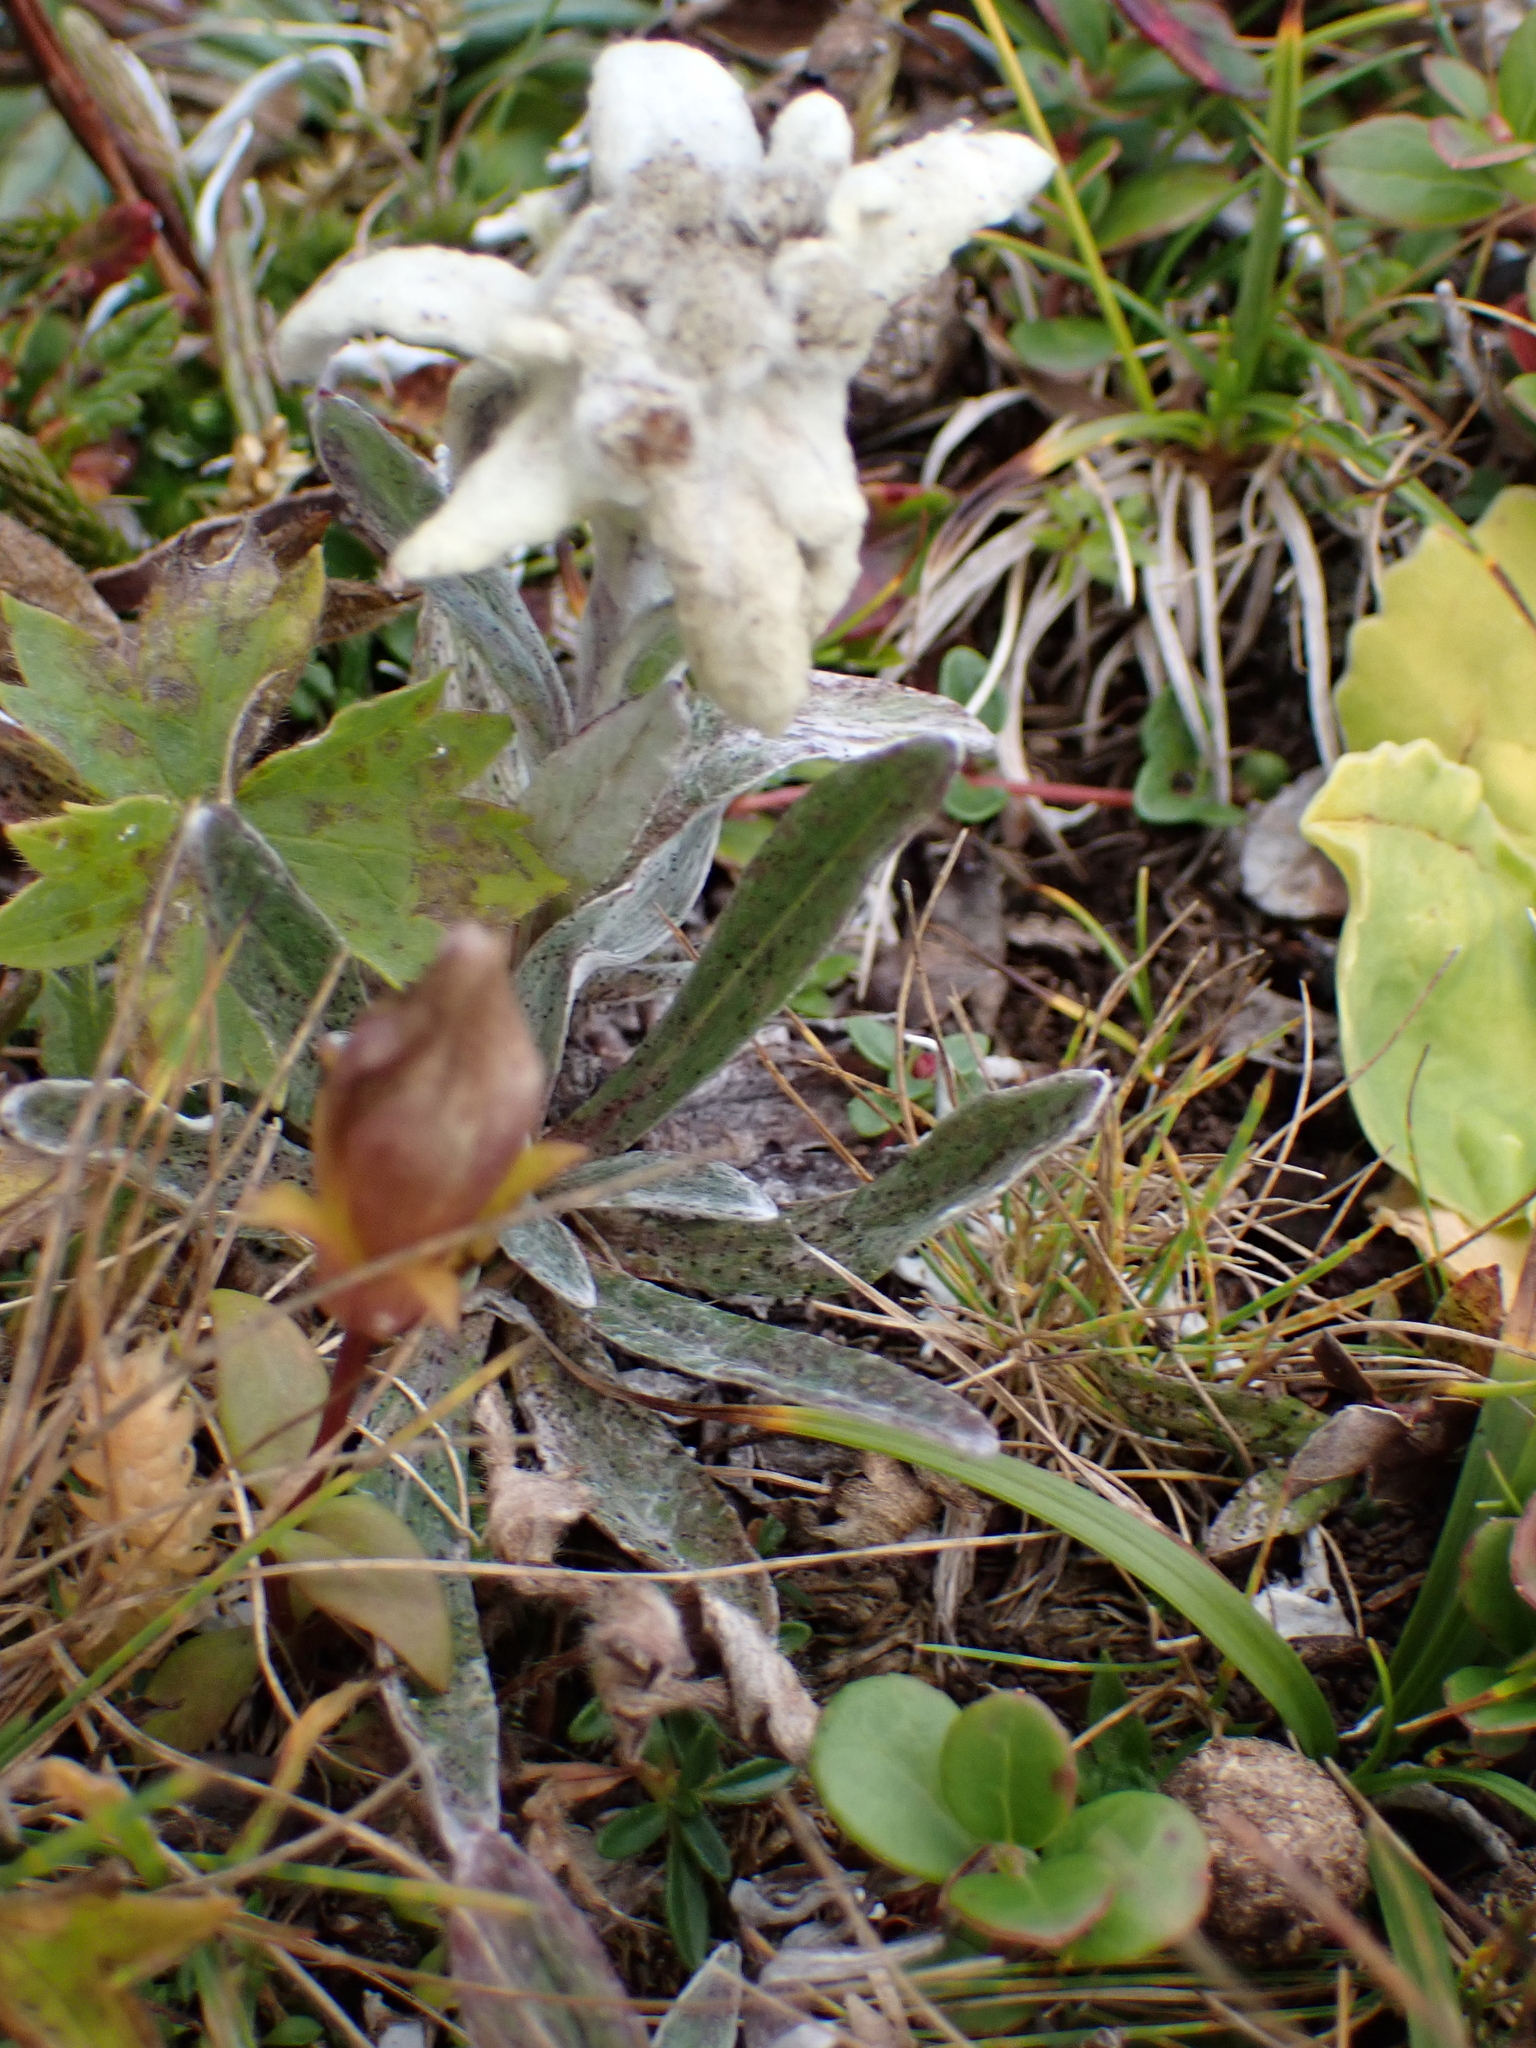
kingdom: Plantae
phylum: Tracheophyta
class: Magnoliopsida
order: Asterales
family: Asteraceae
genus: Leontopodium
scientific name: Leontopodium nivale
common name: Edelweiss
